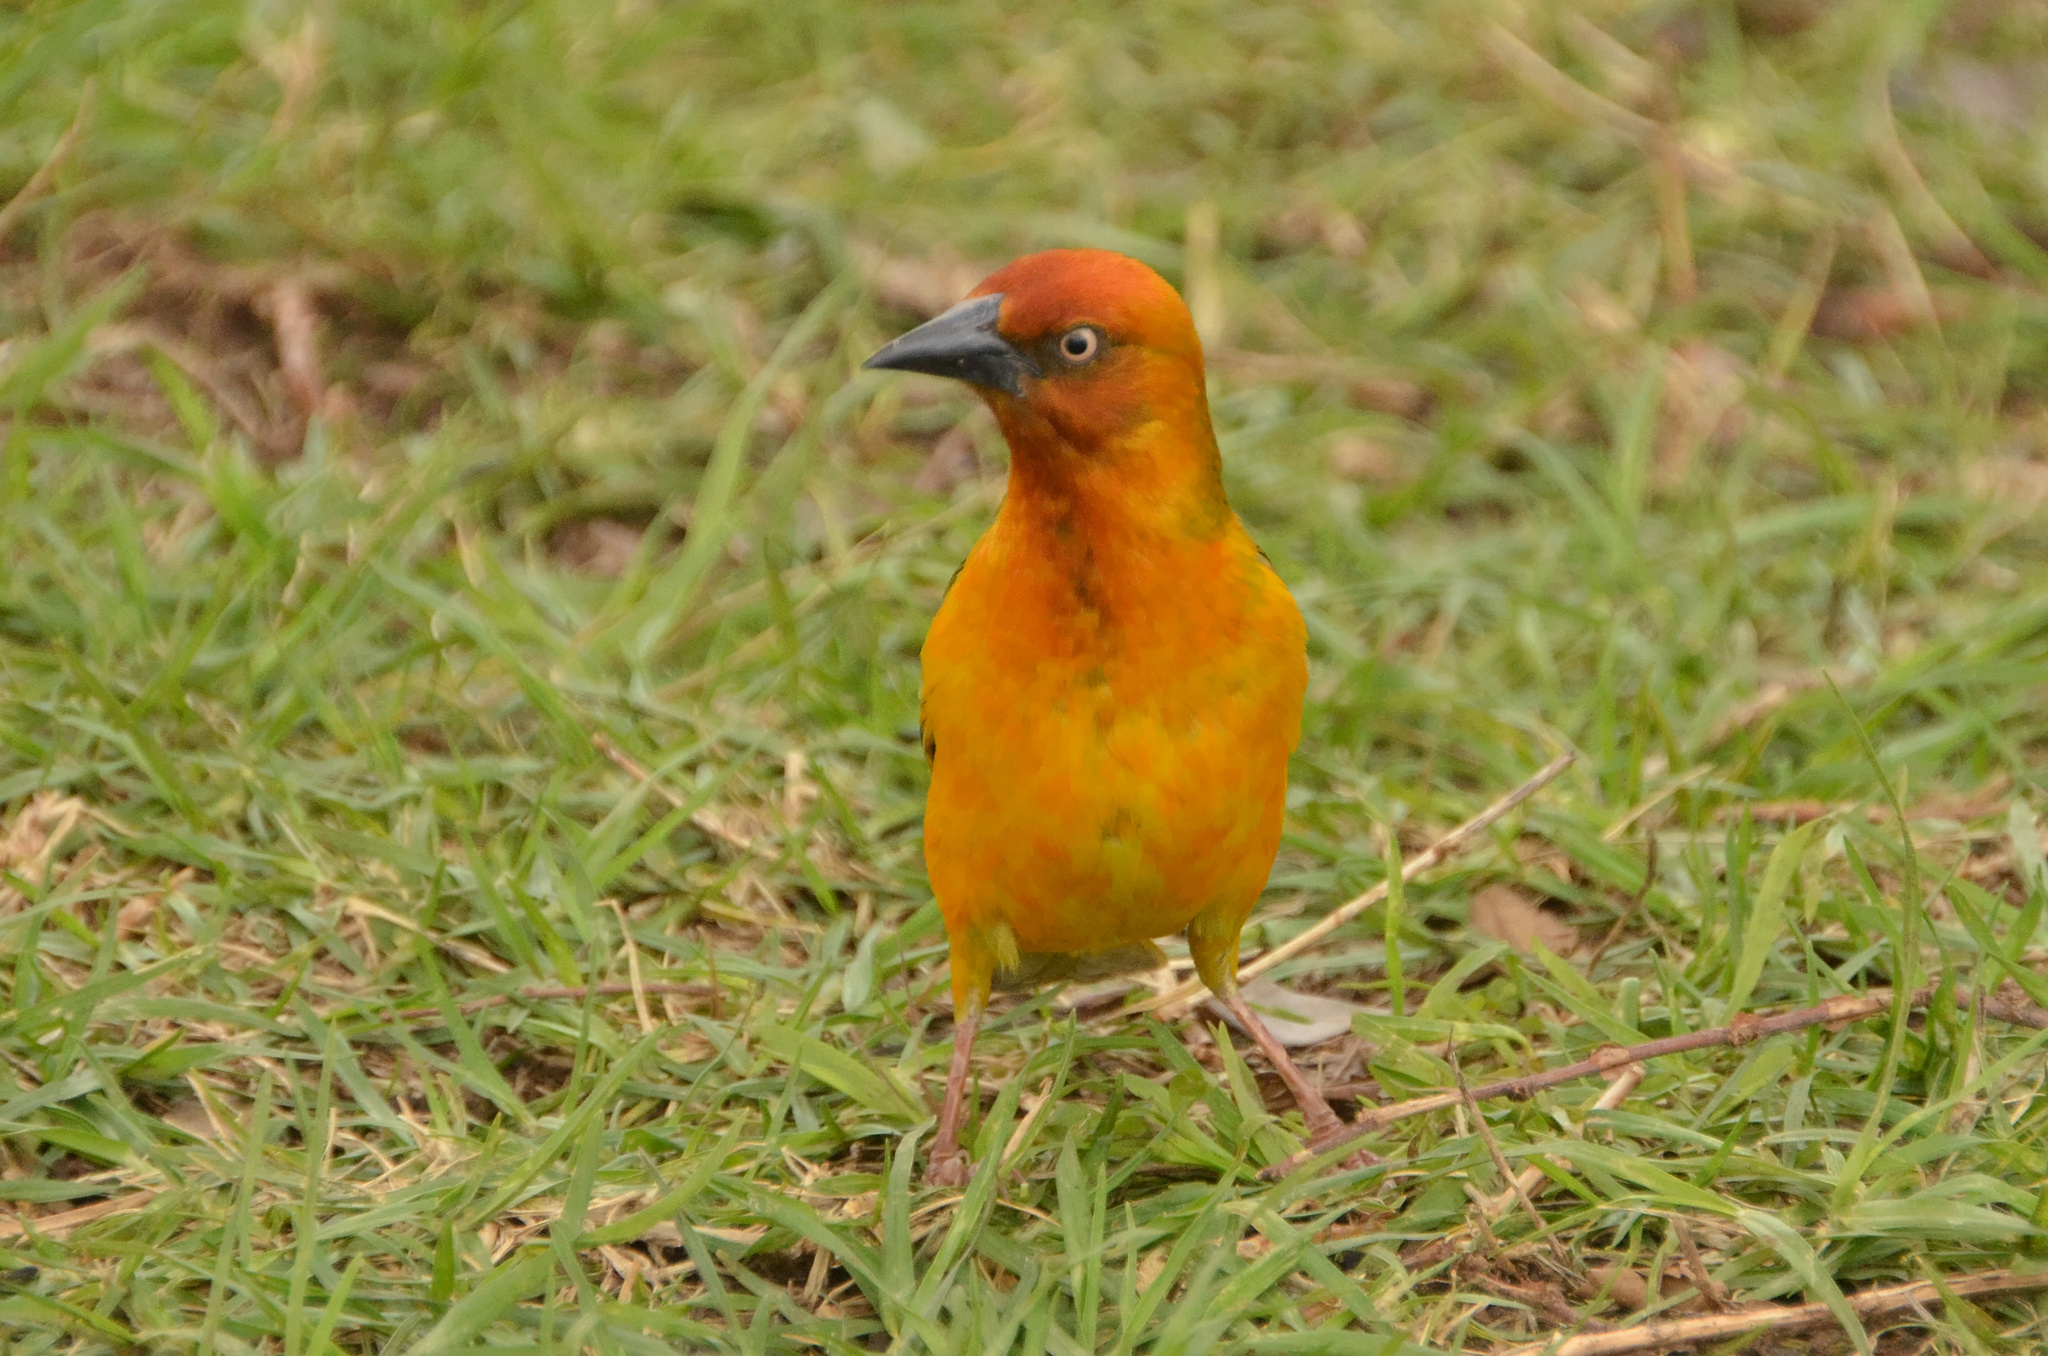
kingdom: Animalia
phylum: Chordata
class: Aves
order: Passeriformes
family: Ploceidae
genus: Ploceus
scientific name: Ploceus capensis
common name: Cape weaver
